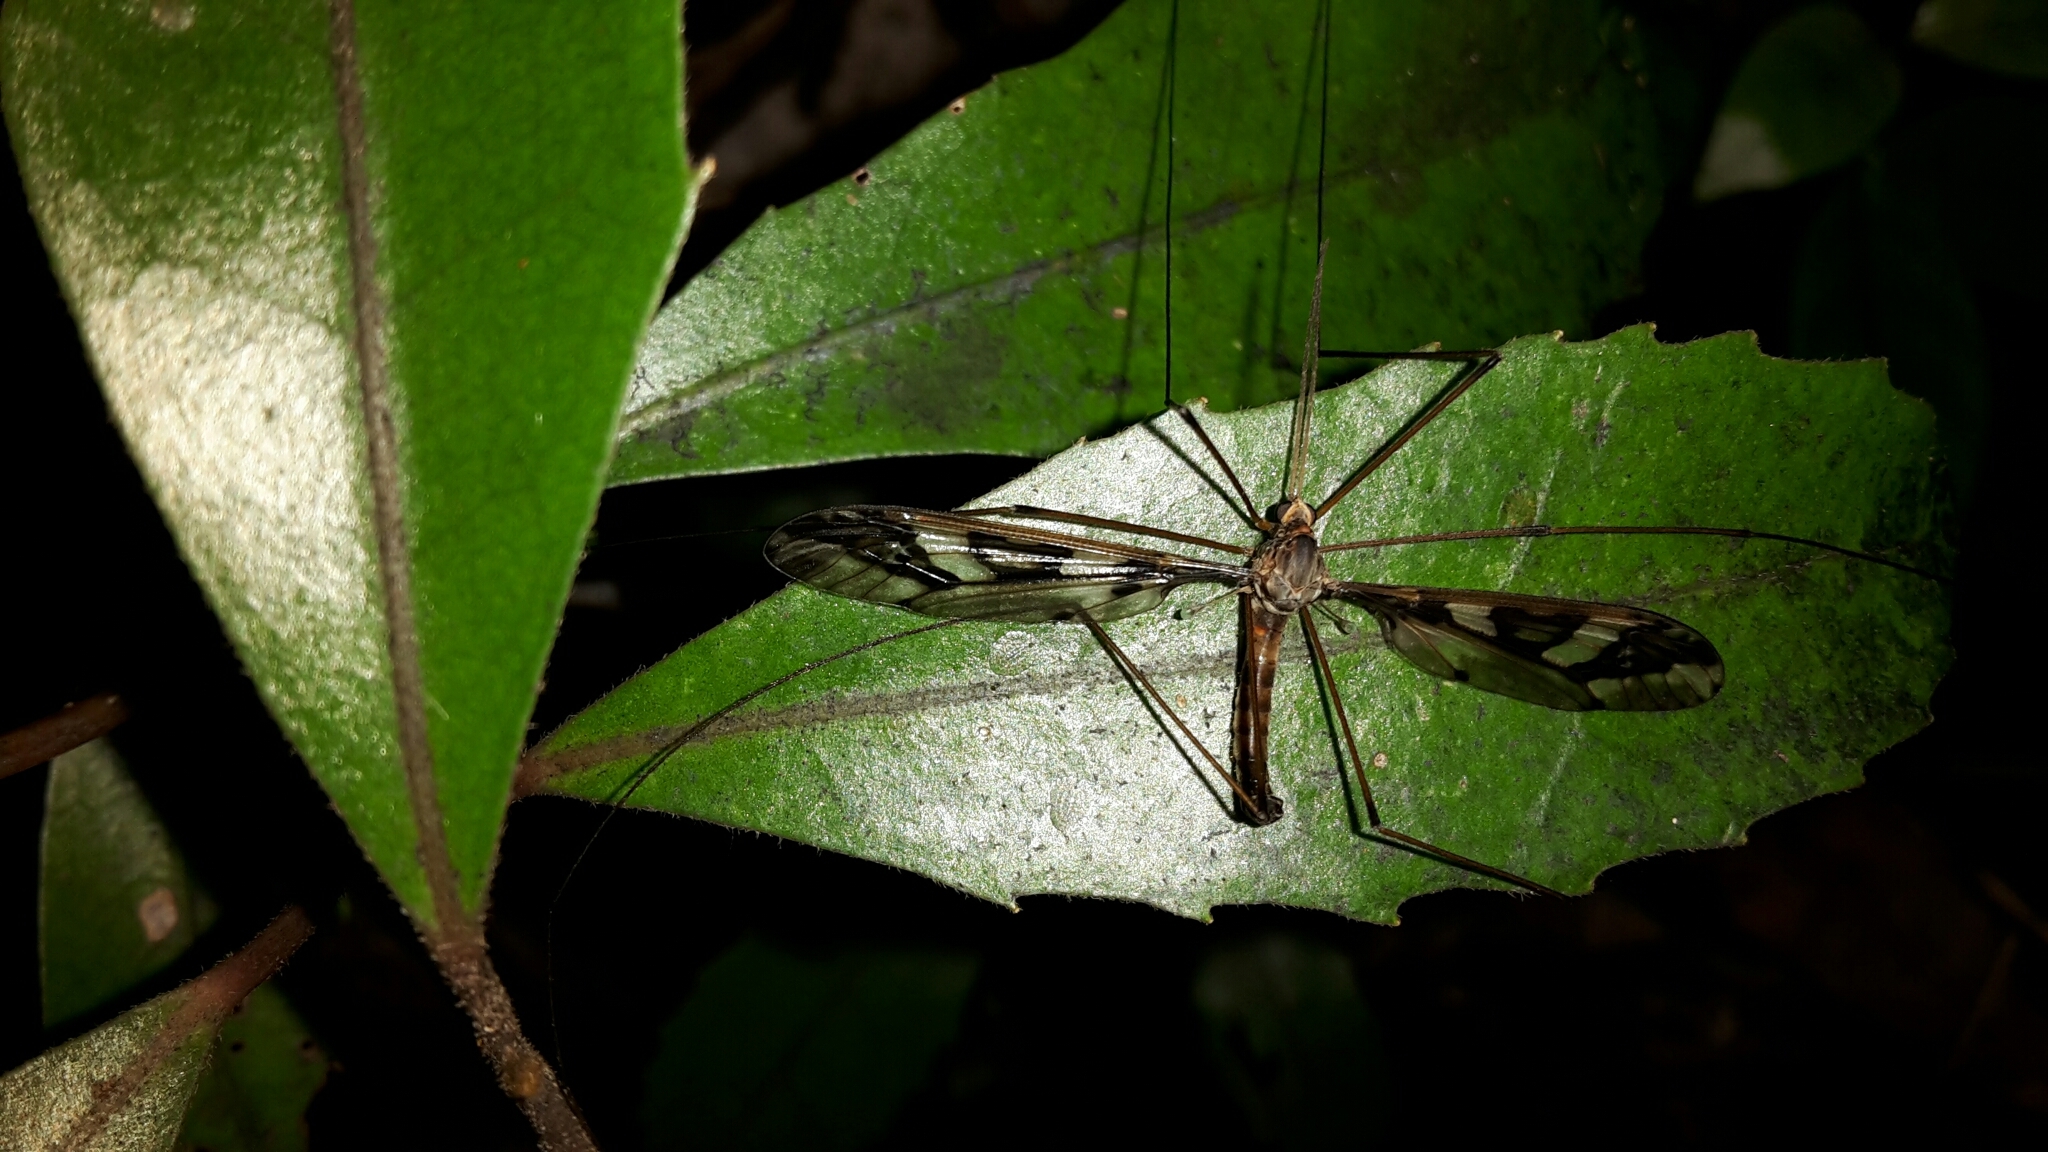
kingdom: Animalia
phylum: Arthropoda
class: Insecta
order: Diptera
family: Tipulidae
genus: Leptotarsus
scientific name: Leptotarsus binotatus
